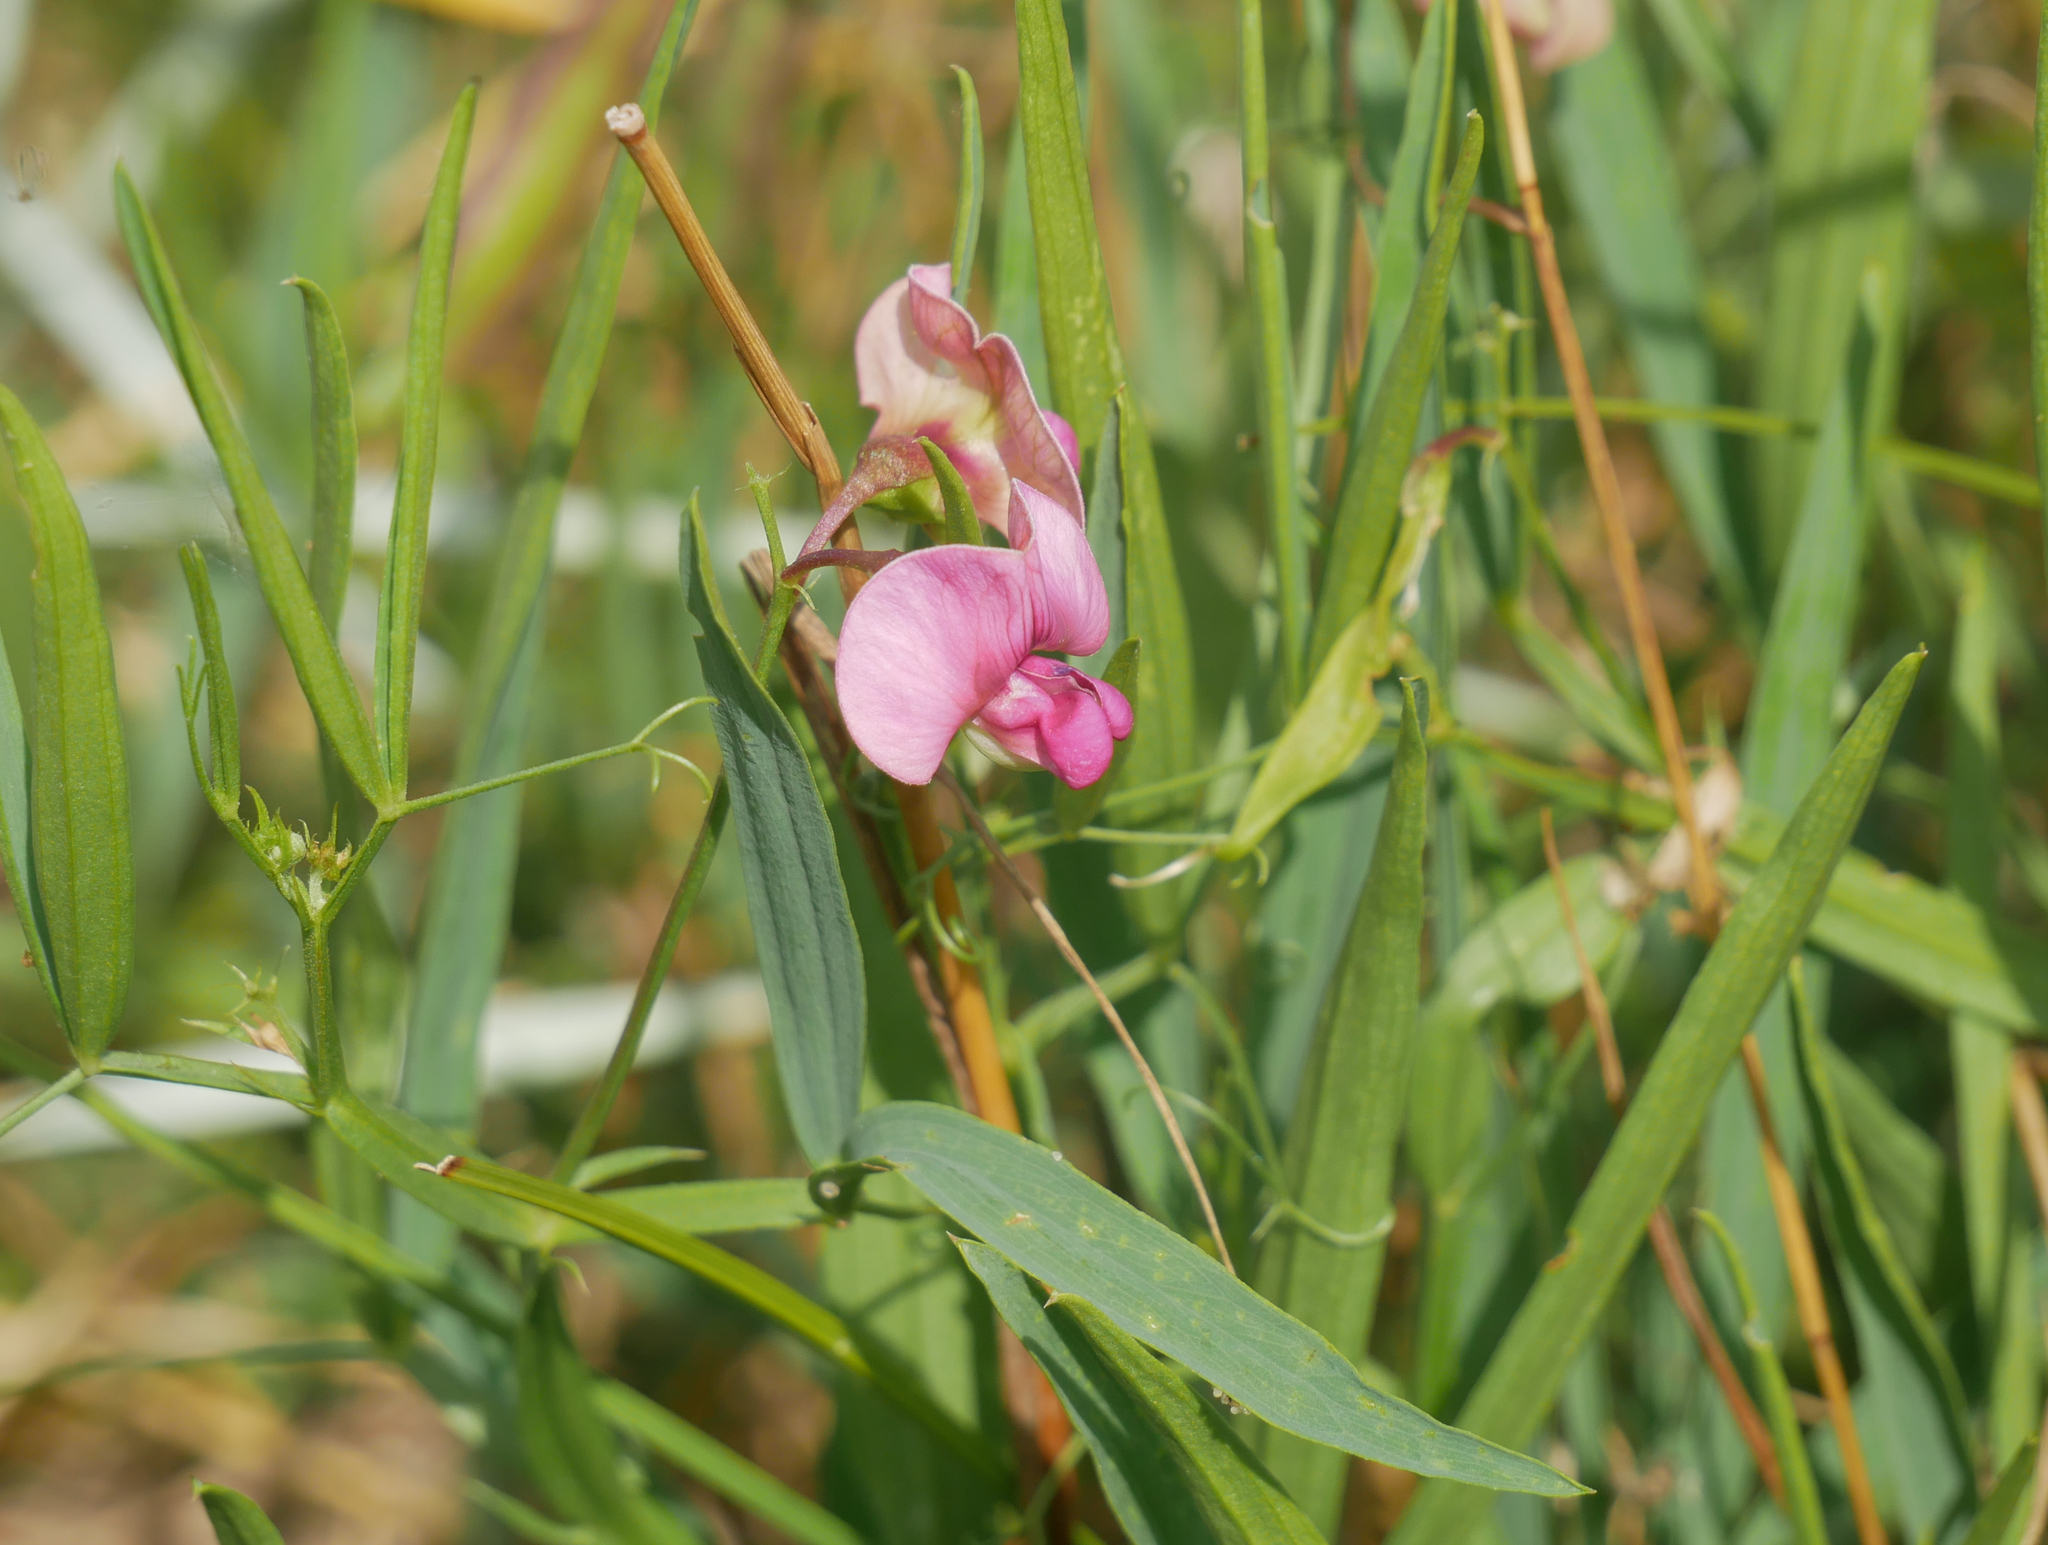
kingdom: Plantae
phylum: Tracheophyta
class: Magnoliopsida
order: Fabales
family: Fabaceae
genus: Lathyrus
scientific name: Lathyrus sylvestris
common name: Flat pea
